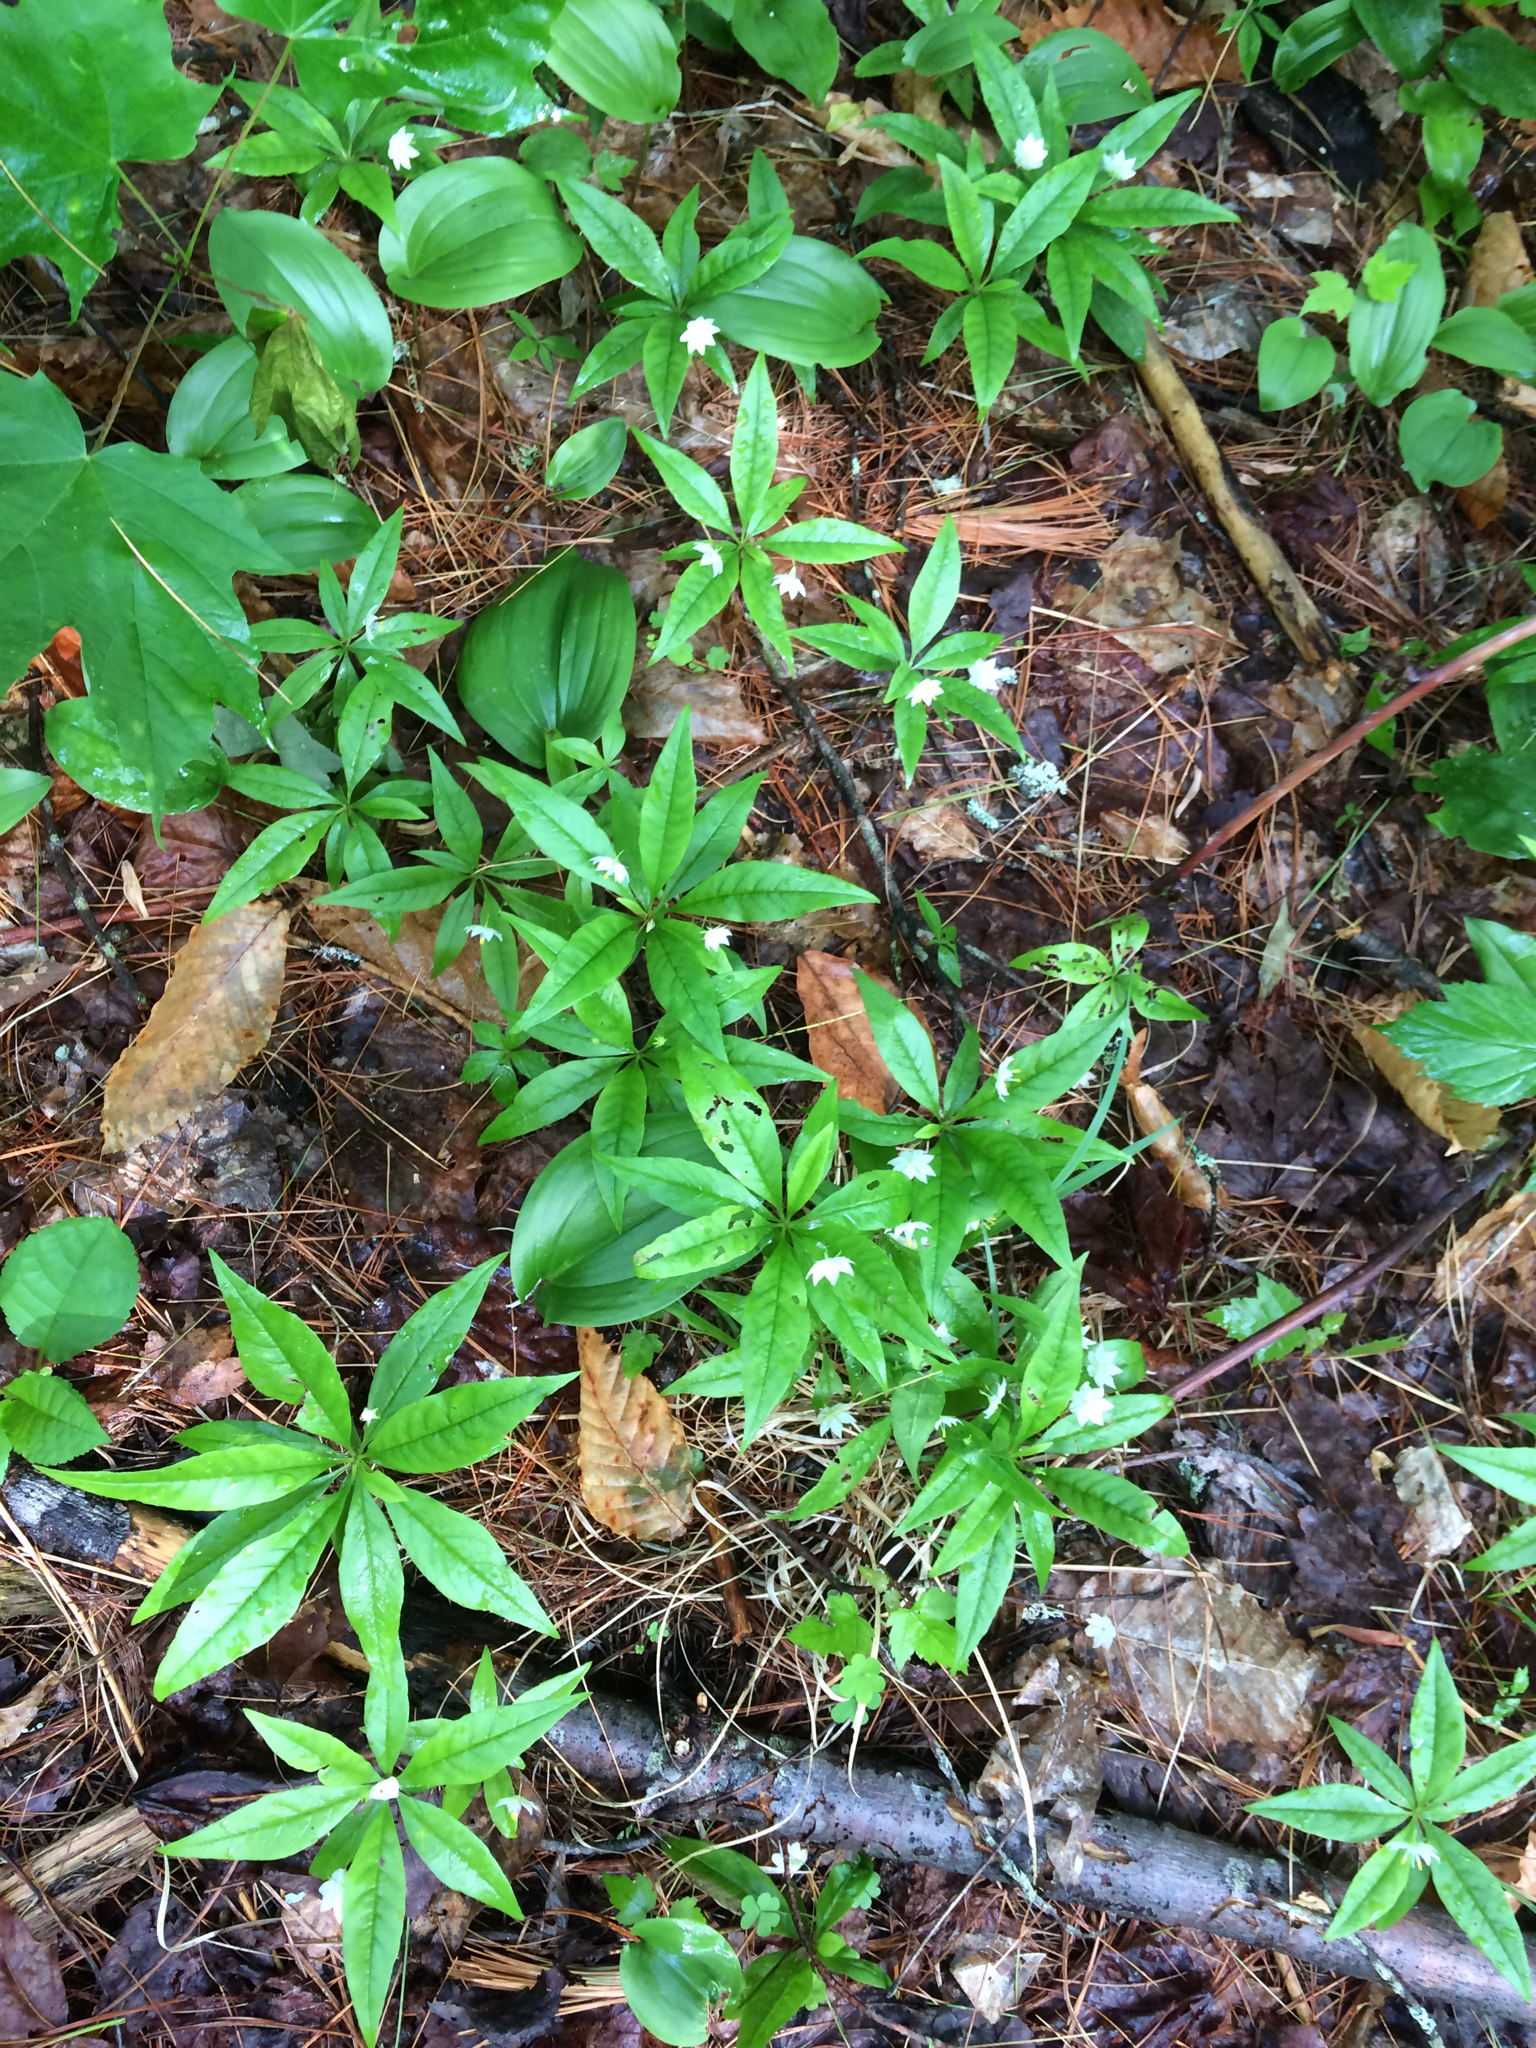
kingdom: Plantae
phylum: Tracheophyta
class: Magnoliopsida
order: Ericales
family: Primulaceae
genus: Lysimachia
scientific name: Lysimachia borealis
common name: American starflower
